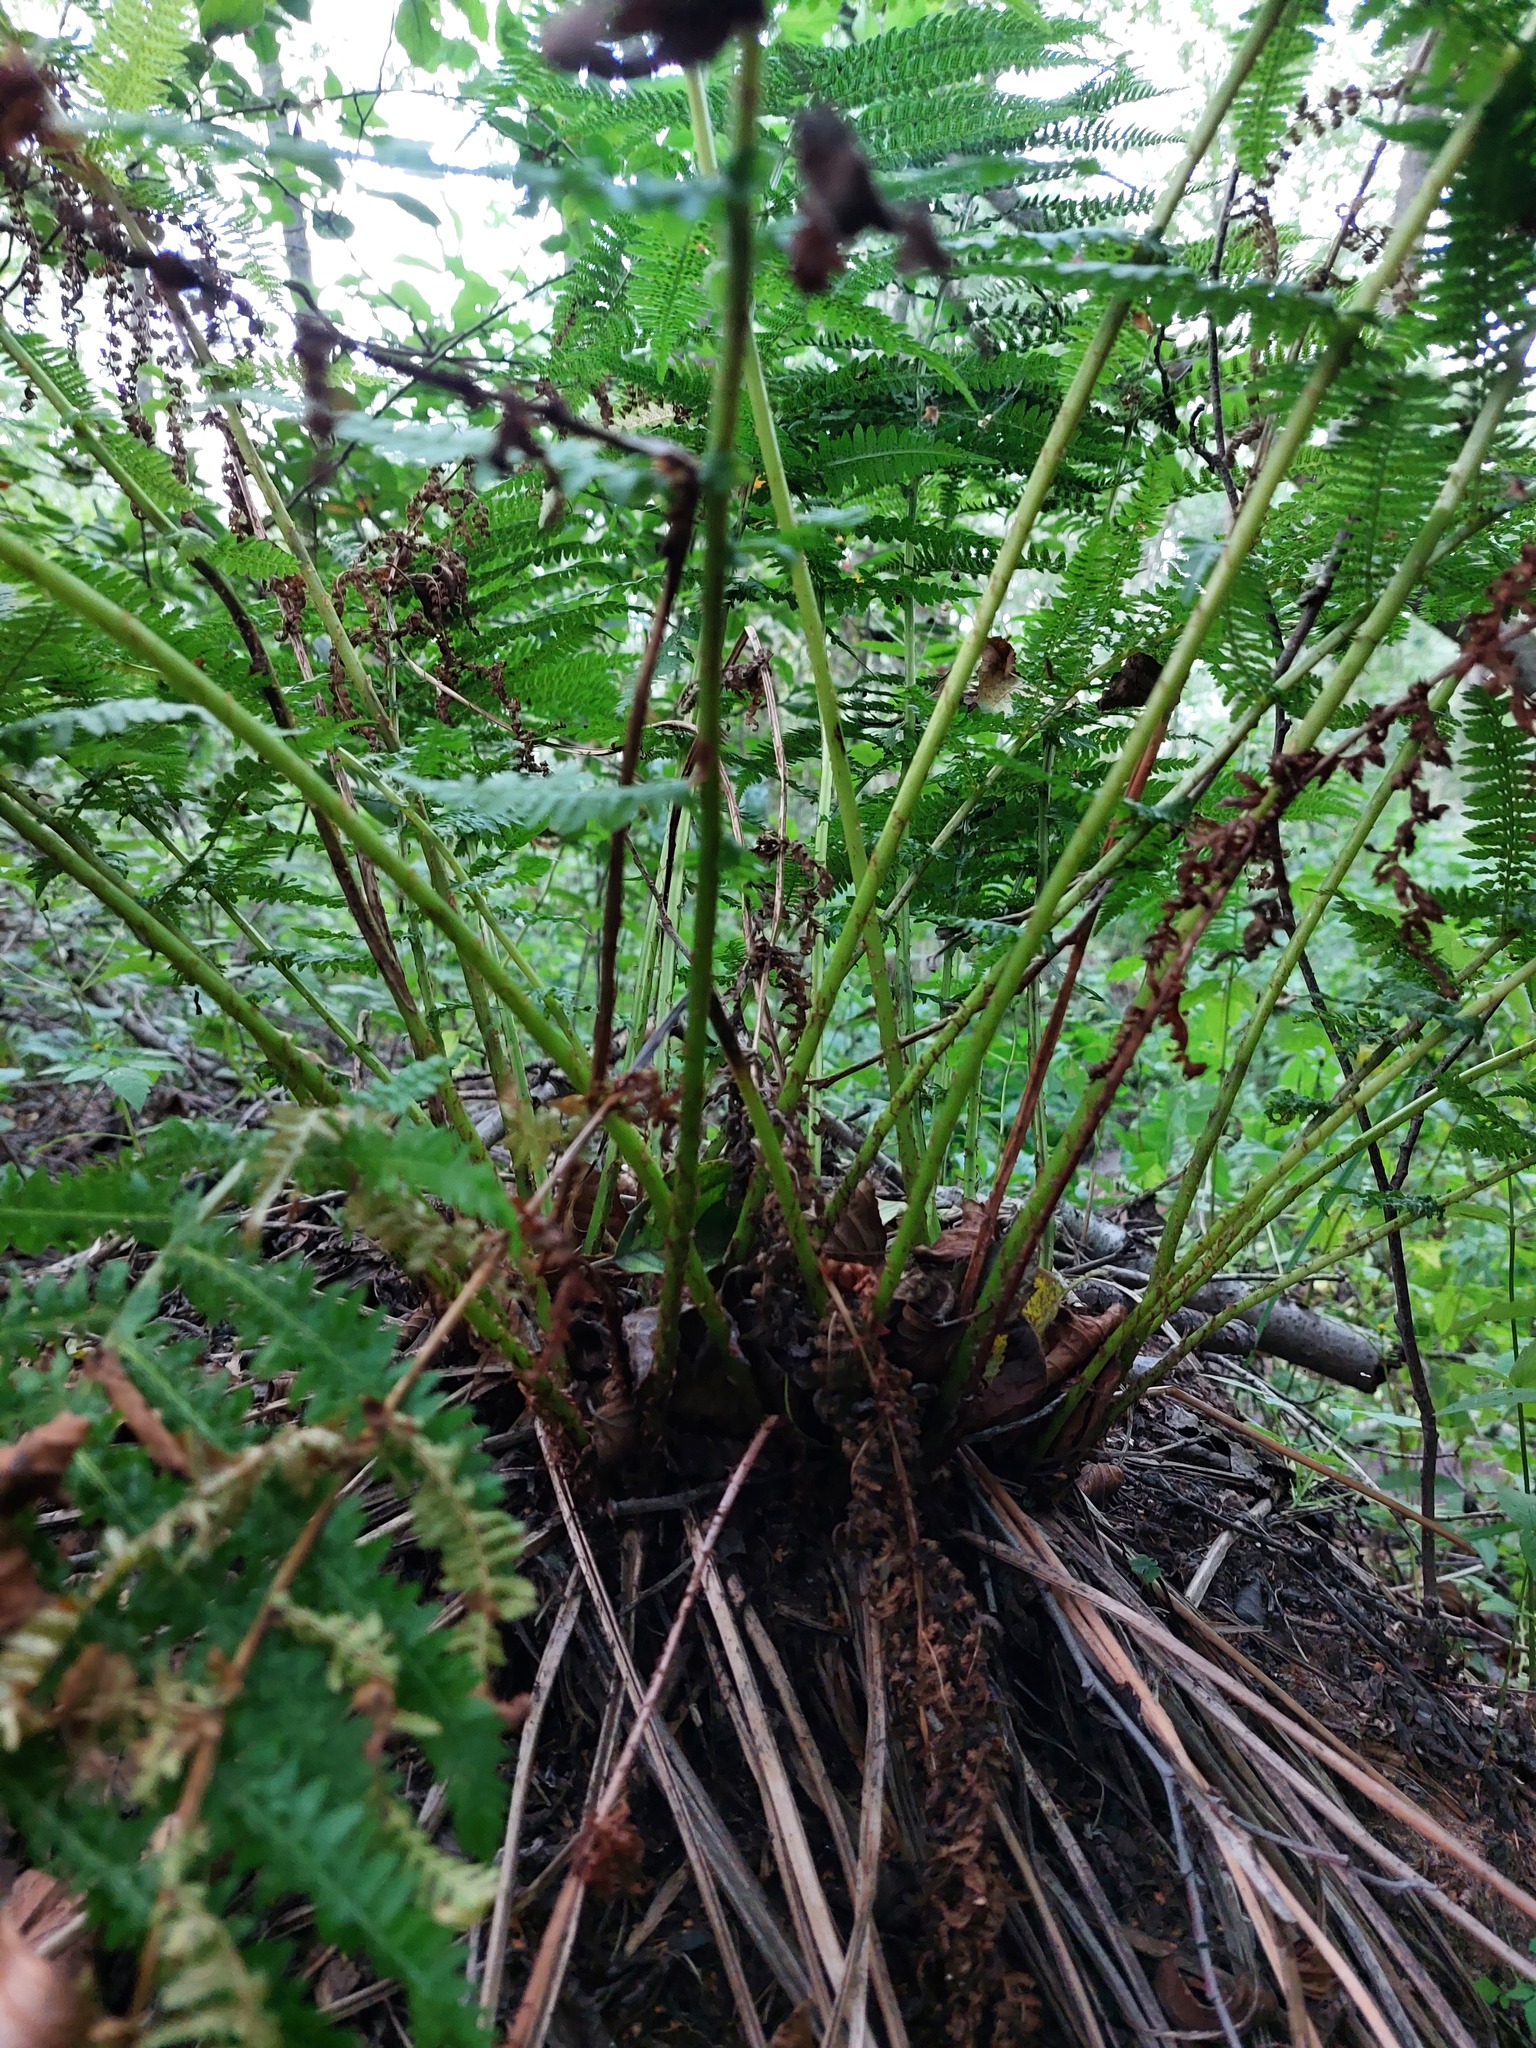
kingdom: Plantae
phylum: Tracheophyta
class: Polypodiopsida
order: Polypodiales
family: Athyriaceae
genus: Athyrium
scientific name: Athyrium filix-femina
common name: Lady fern
